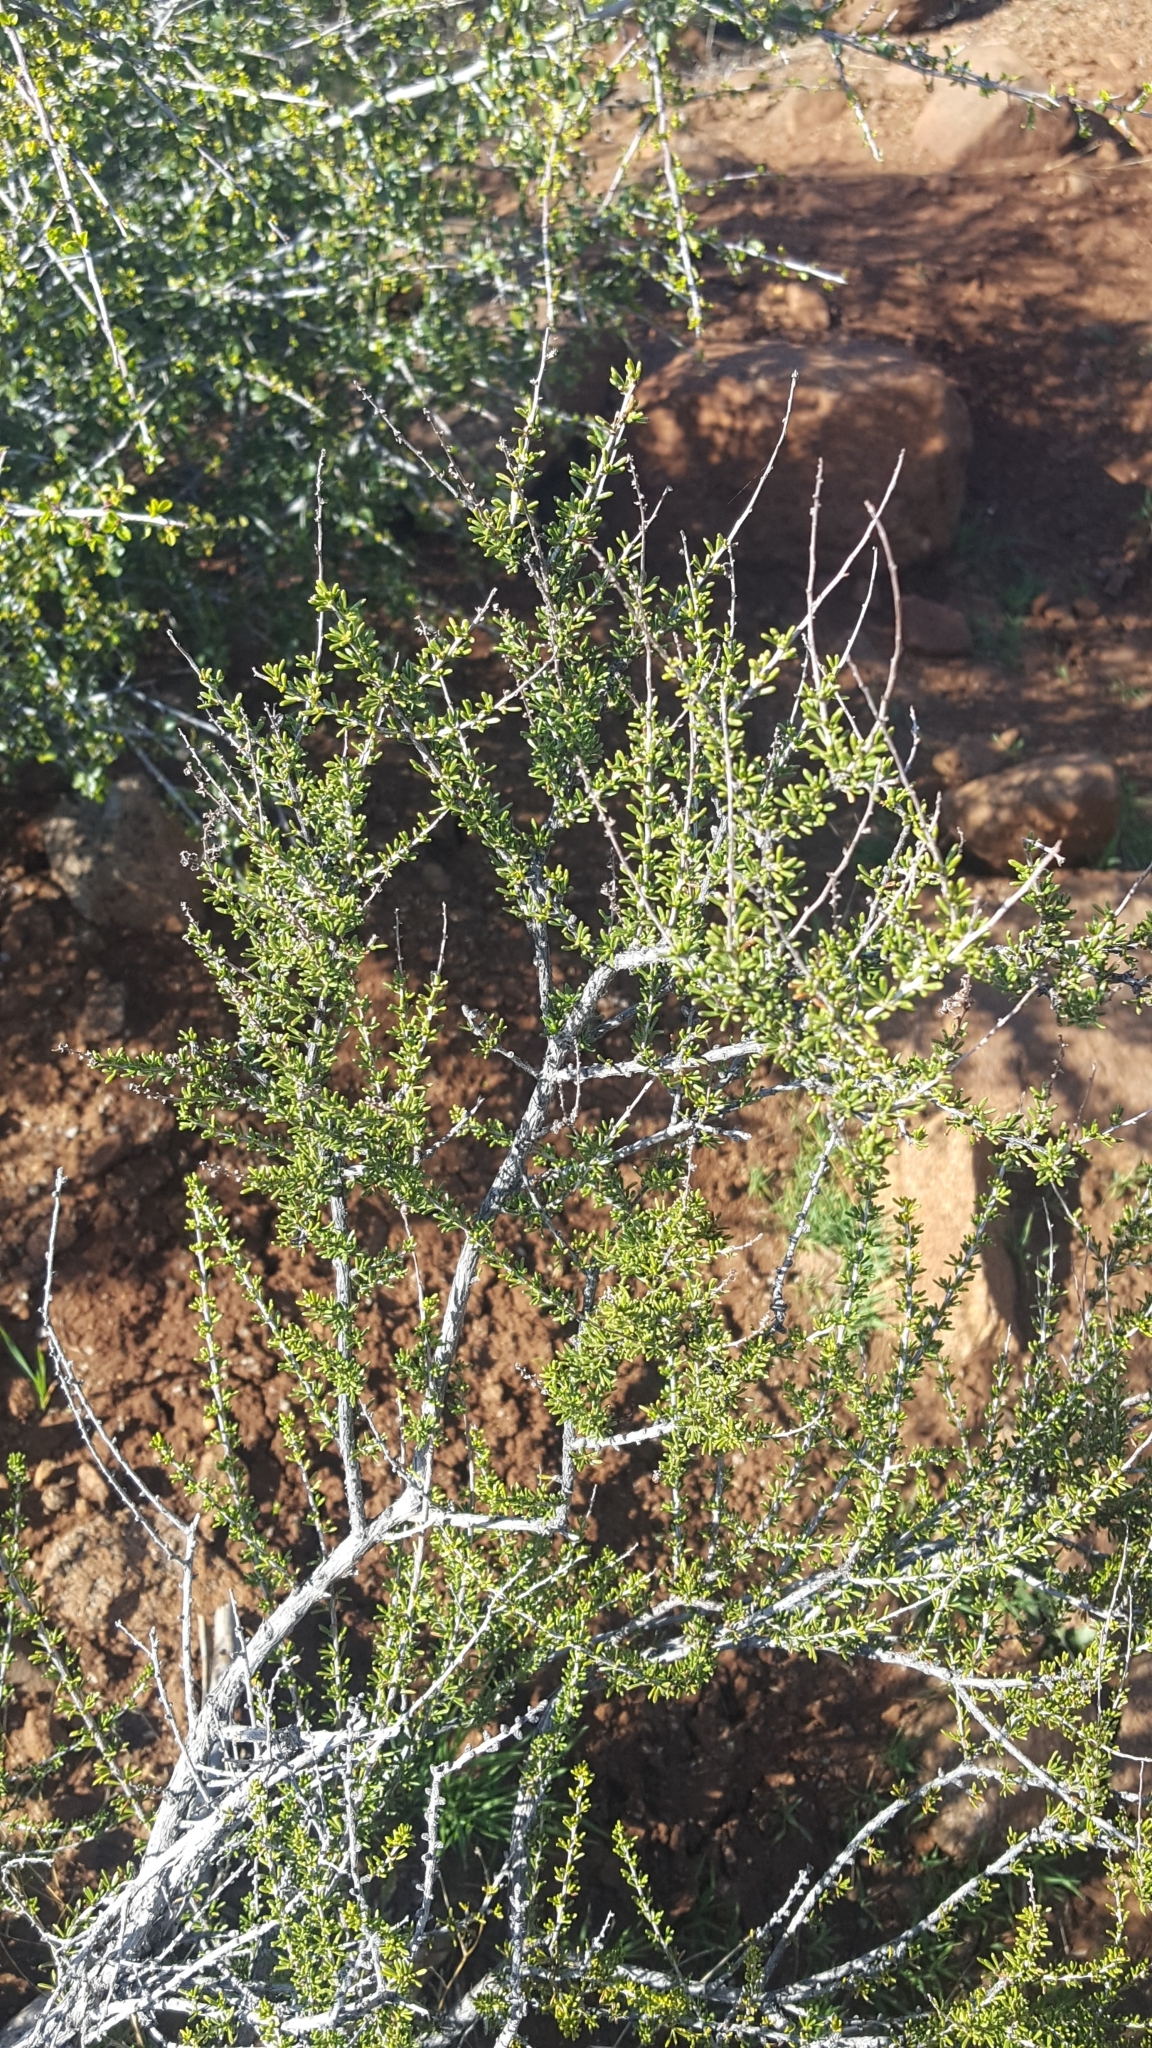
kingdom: Plantae
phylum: Tracheophyta
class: Magnoliopsida
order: Rosales
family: Rosaceae
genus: Adenostoma
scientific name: Adenostoma fasciculatum
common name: Chamise
